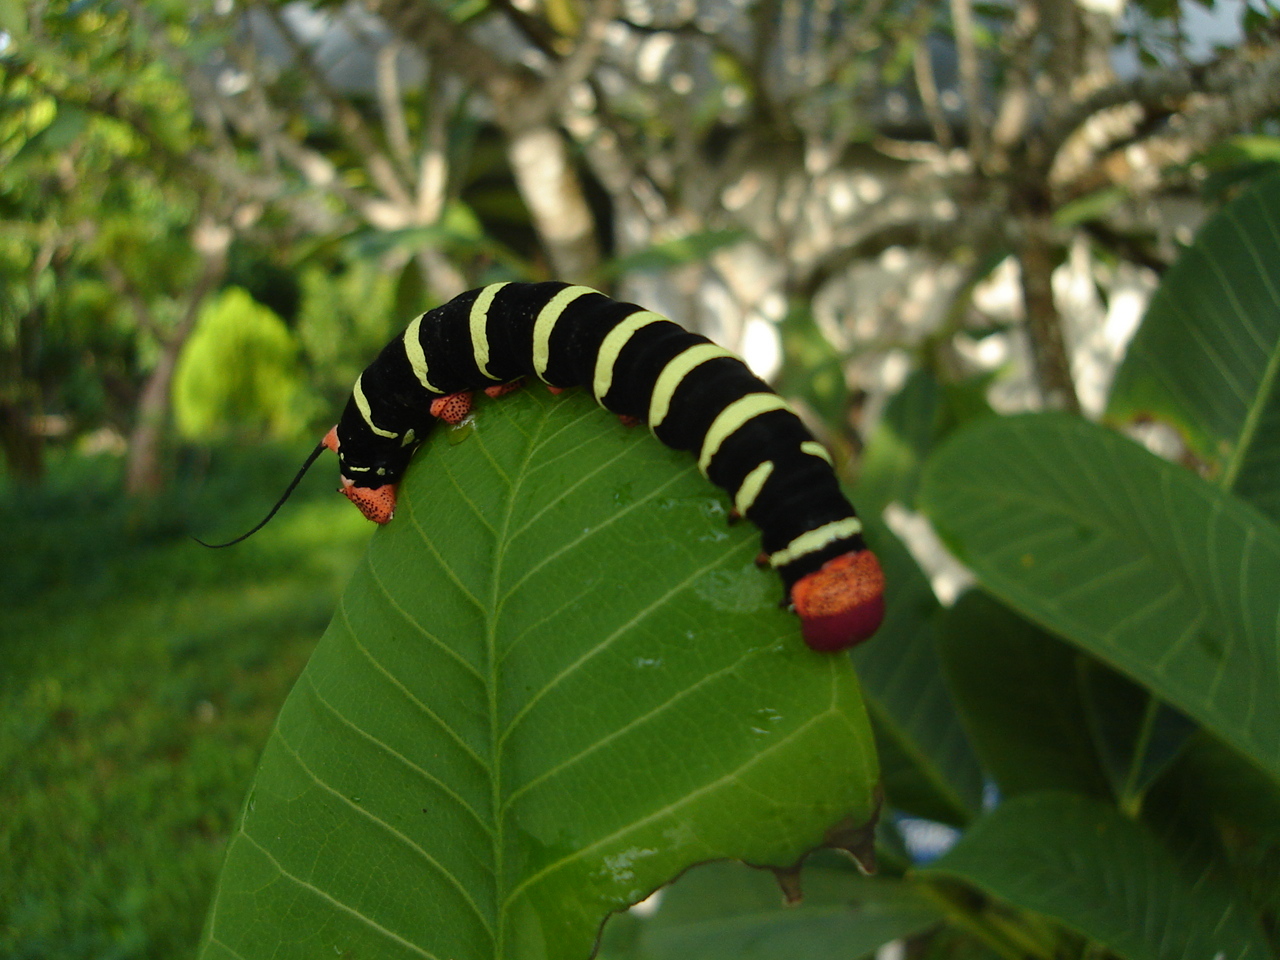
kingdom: Animalia
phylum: Arthropoda
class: Insecta
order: Lepidoptera
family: Sphingidae
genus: Pseudosphinx
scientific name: Pseudosphinx tetrio
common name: Tetrio sphinx
